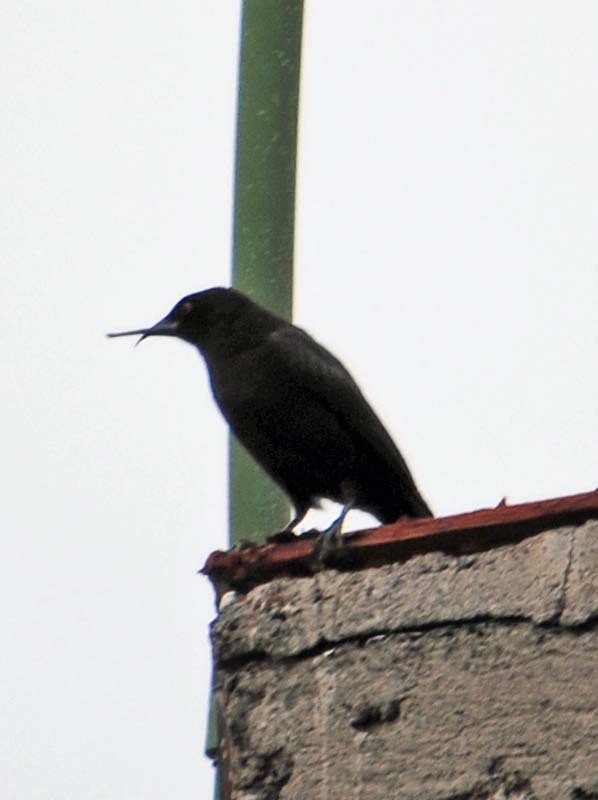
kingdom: Animalia
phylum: Chordata
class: Aves
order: Passeriformes
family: Icteridae
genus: Molothrus
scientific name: Molothrus aeneus
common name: Bronzed cowbird
